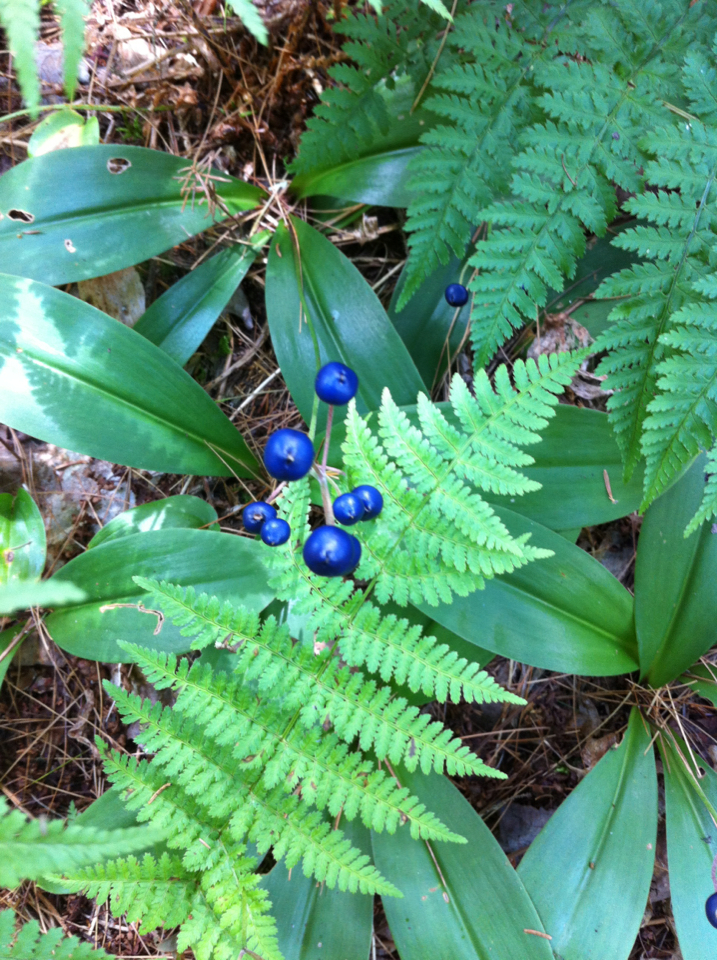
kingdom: Plantae
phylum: Tracheophyta
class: Liliopsida
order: Liliales
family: Liliaceae
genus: Clintonia
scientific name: Clintonia borealis
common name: Yellow clintonia
